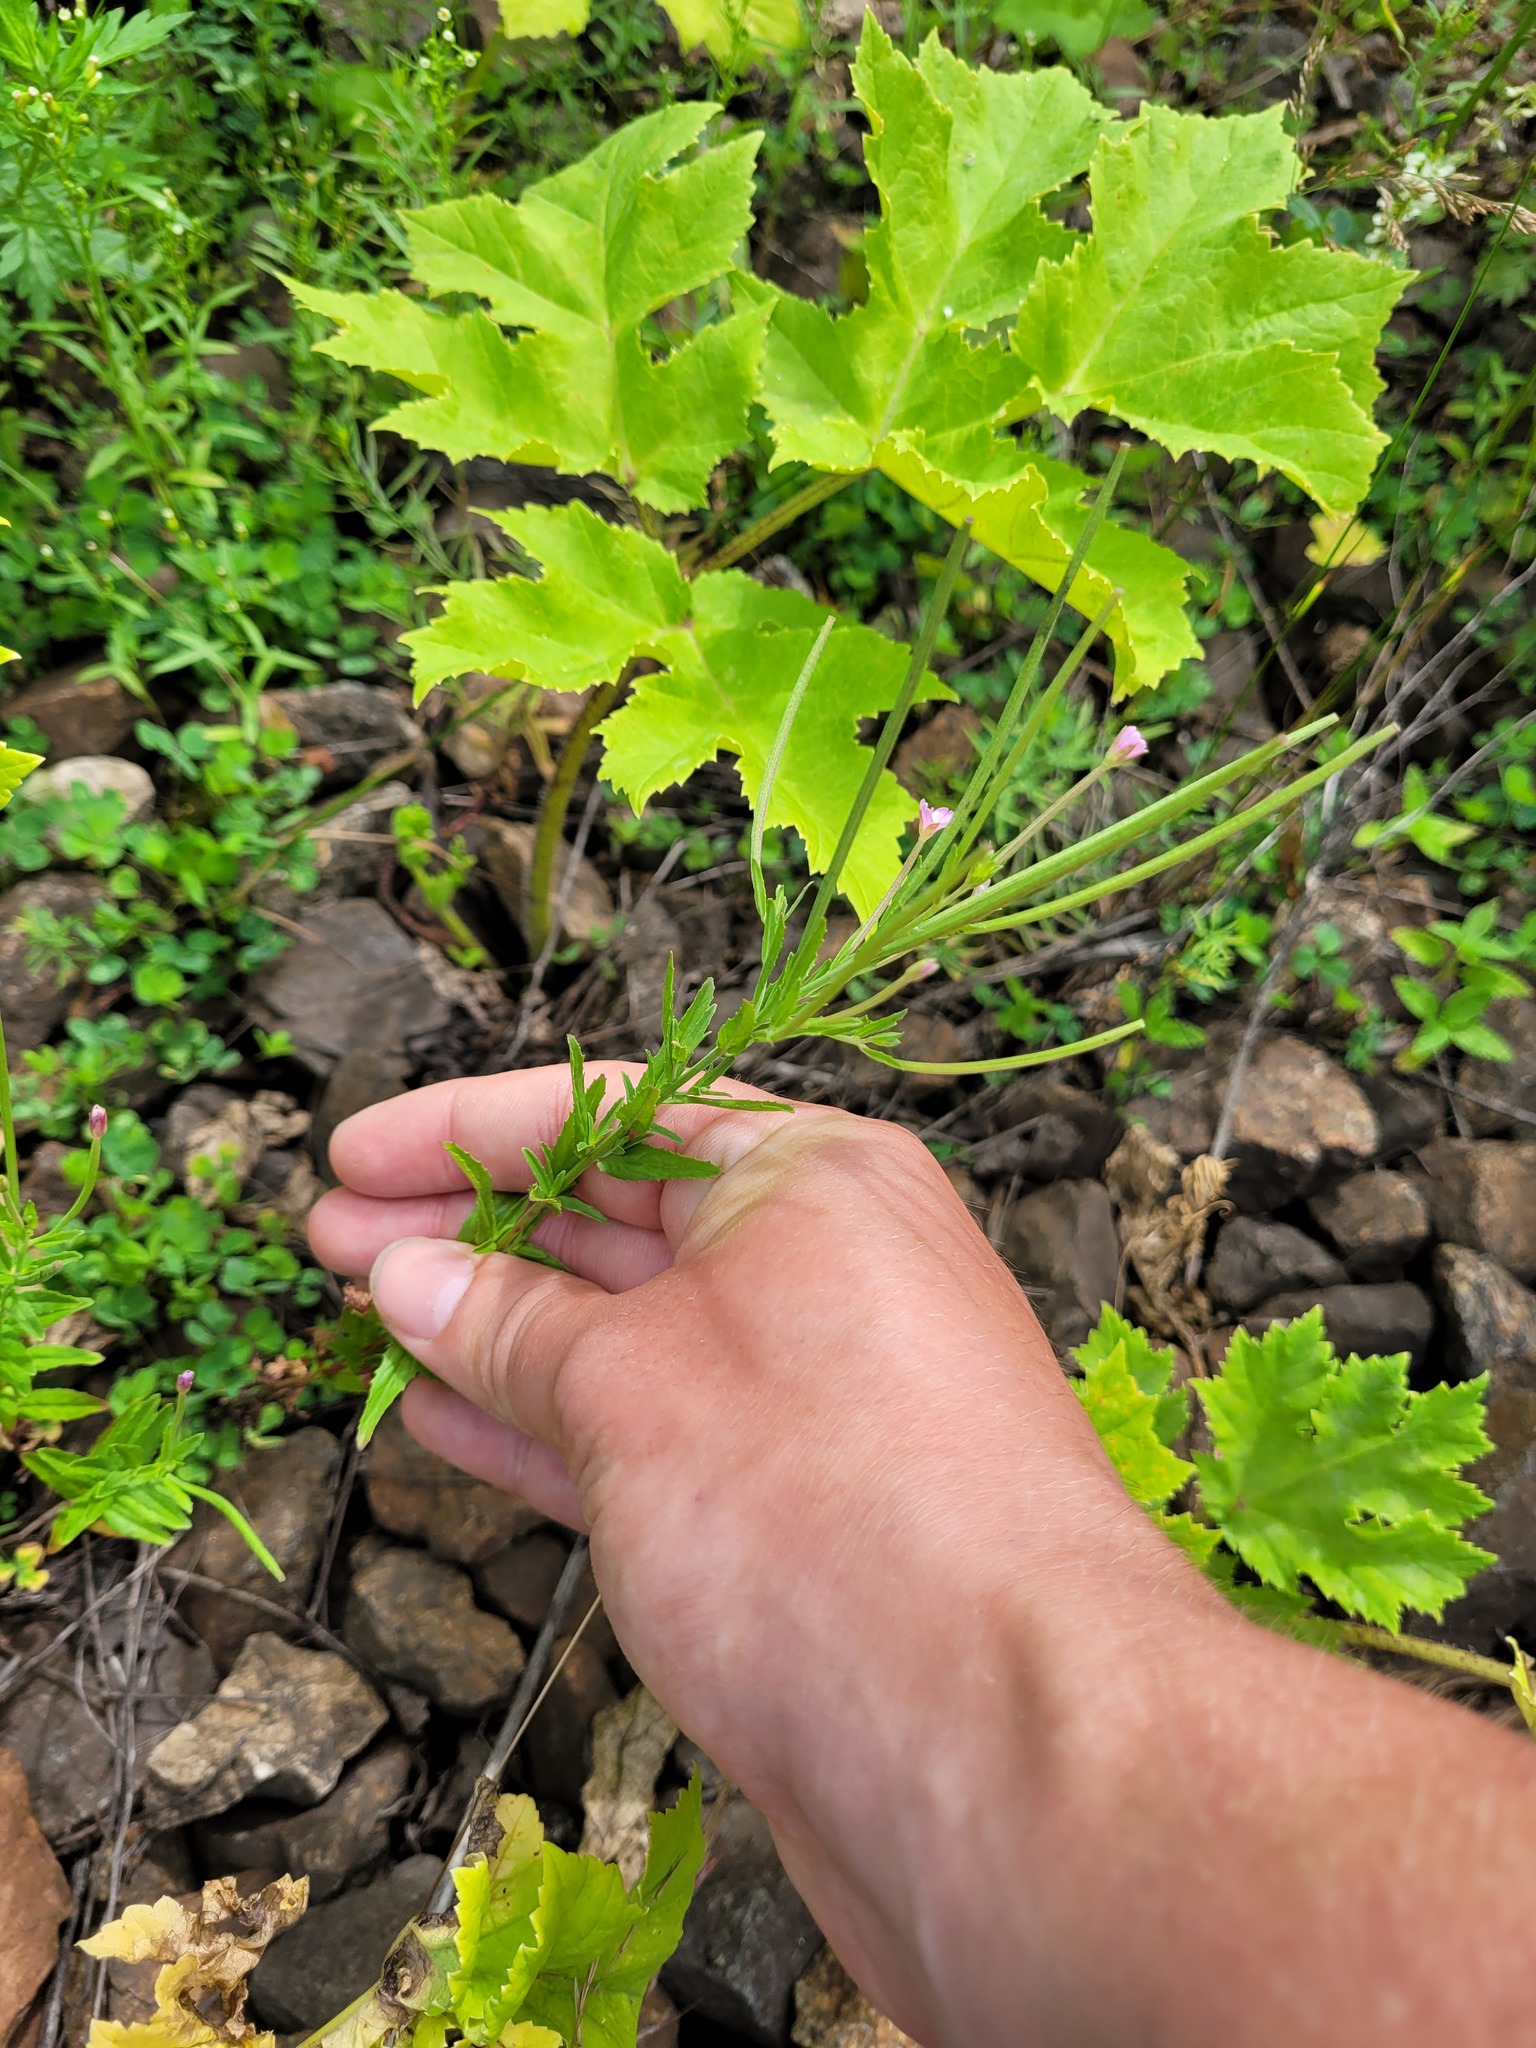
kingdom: Plantae
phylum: Tracheophyta
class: Magnoliopsida
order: Myrtales
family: Onagraceae
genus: Epilobium
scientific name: Epilobium tetragonum
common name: Square-stemmed willowherb
